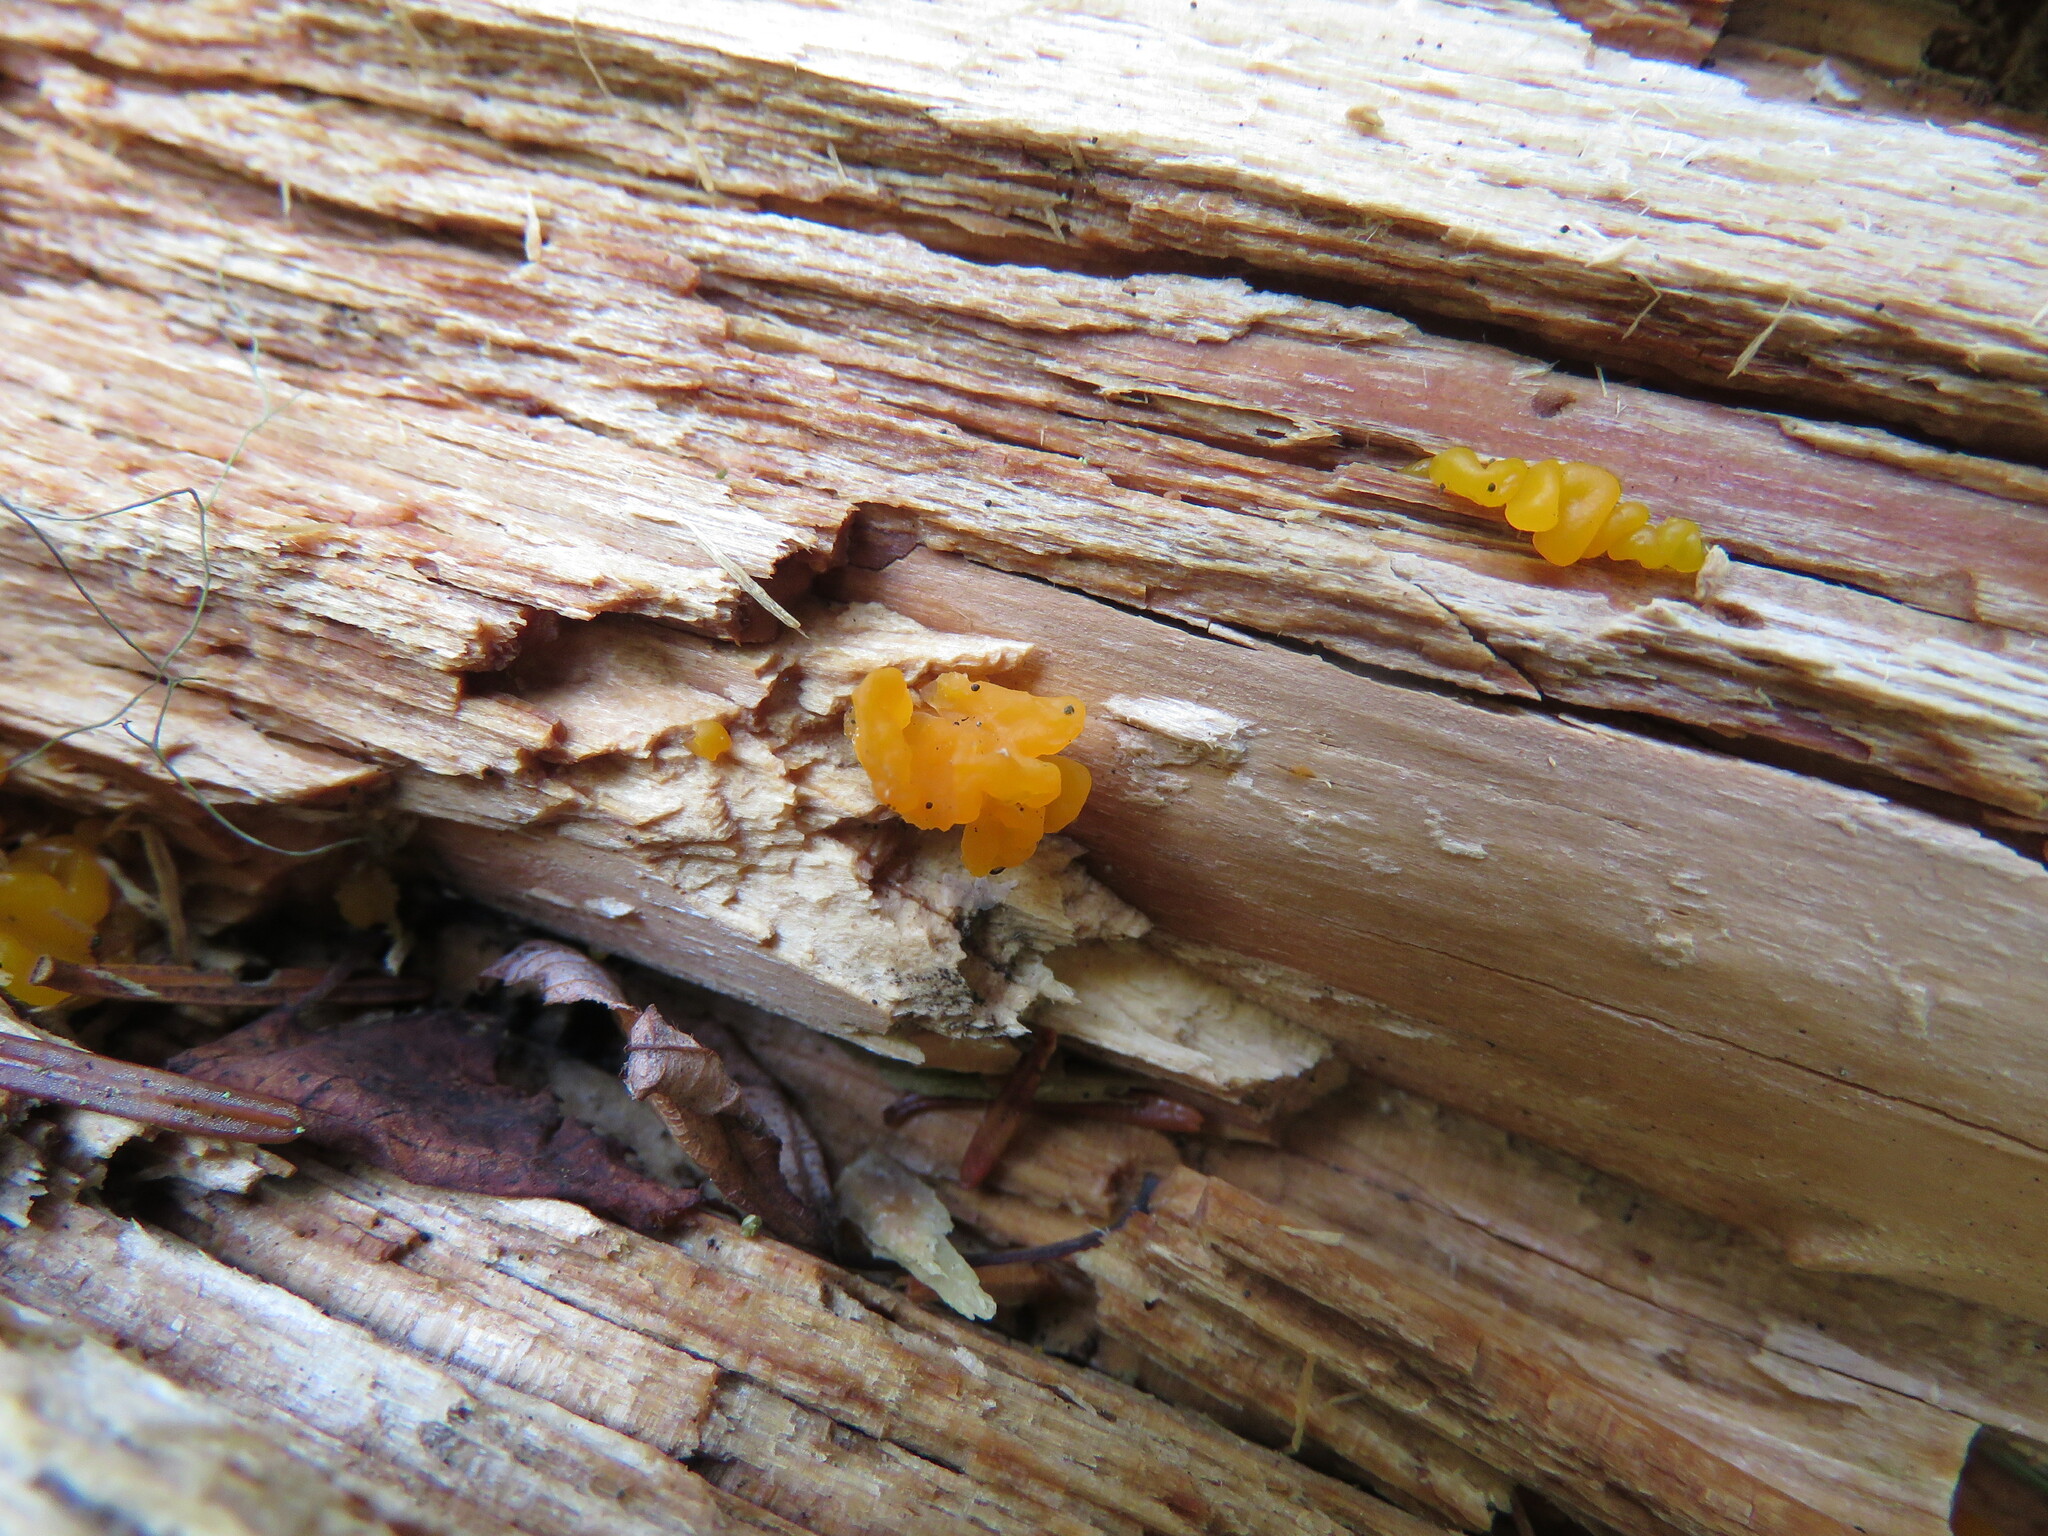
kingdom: Fungi
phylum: Basidiomycota
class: Dacrymycetes
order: Dacrymycetales
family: Dacrymycetaceae
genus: Dacrymyces
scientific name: Dacrymyces chrysospermus
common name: Orange jelly spot
